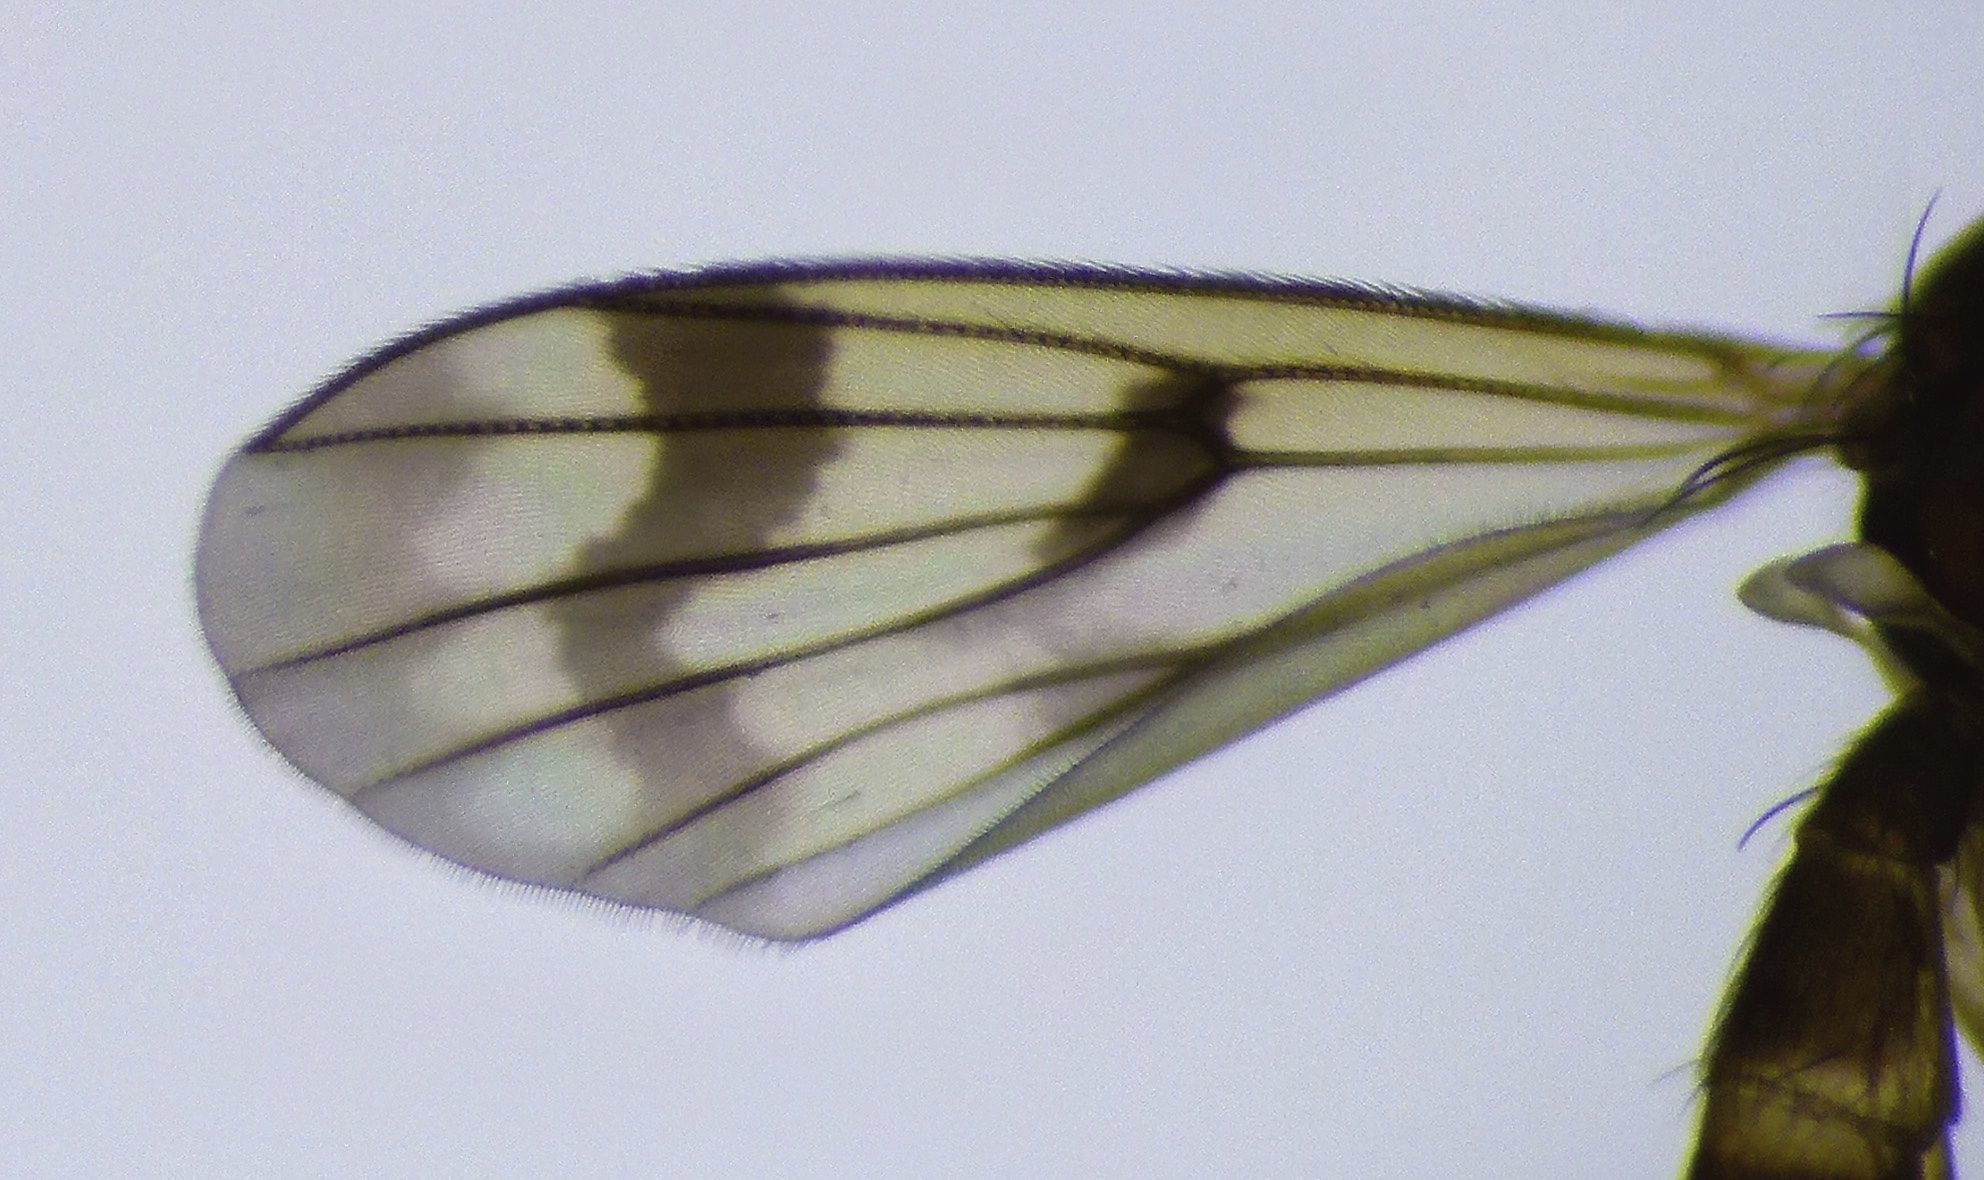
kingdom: Animalia
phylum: Arthropoda
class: Insecta
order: Diptera
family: Mycetophilidae
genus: Mycetophila
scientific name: Mycetophila consobrina
